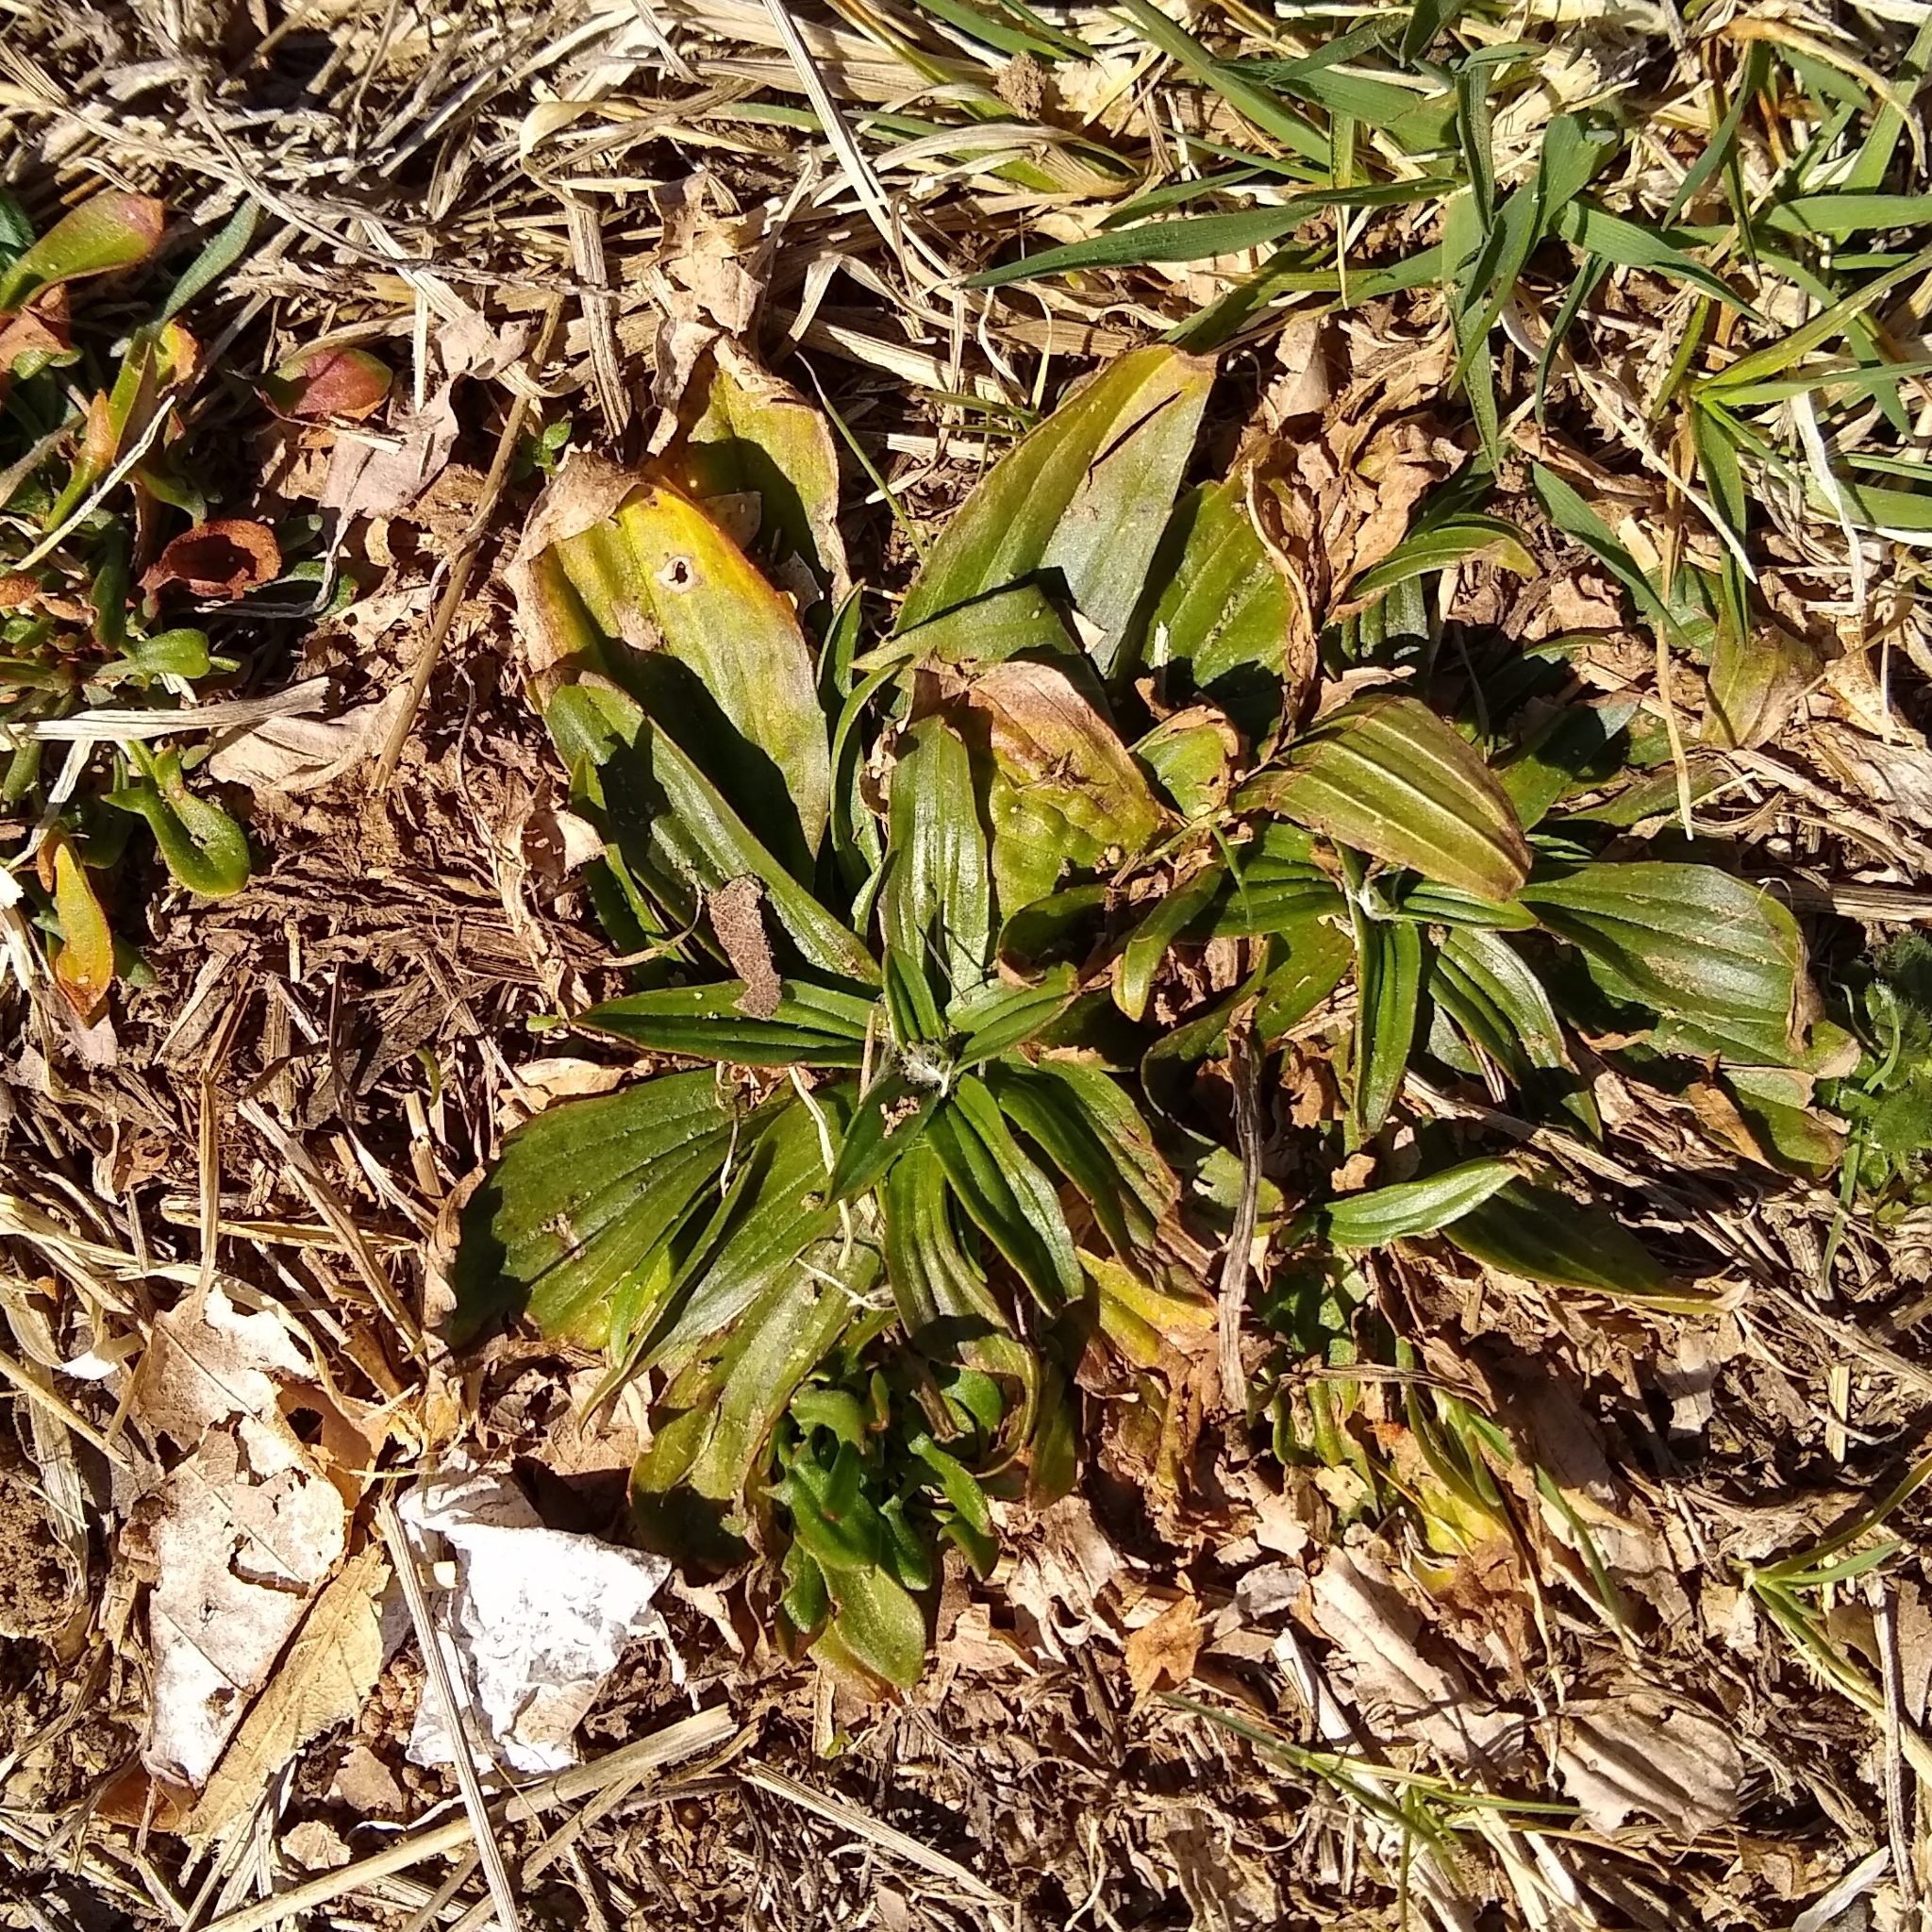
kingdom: Plantae
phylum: Tracheophyta
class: Magnoliopsida
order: Lamiales
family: Plantaginaceae
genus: Plantago
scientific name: Plantago lanceolata
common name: Ribwort plantain
